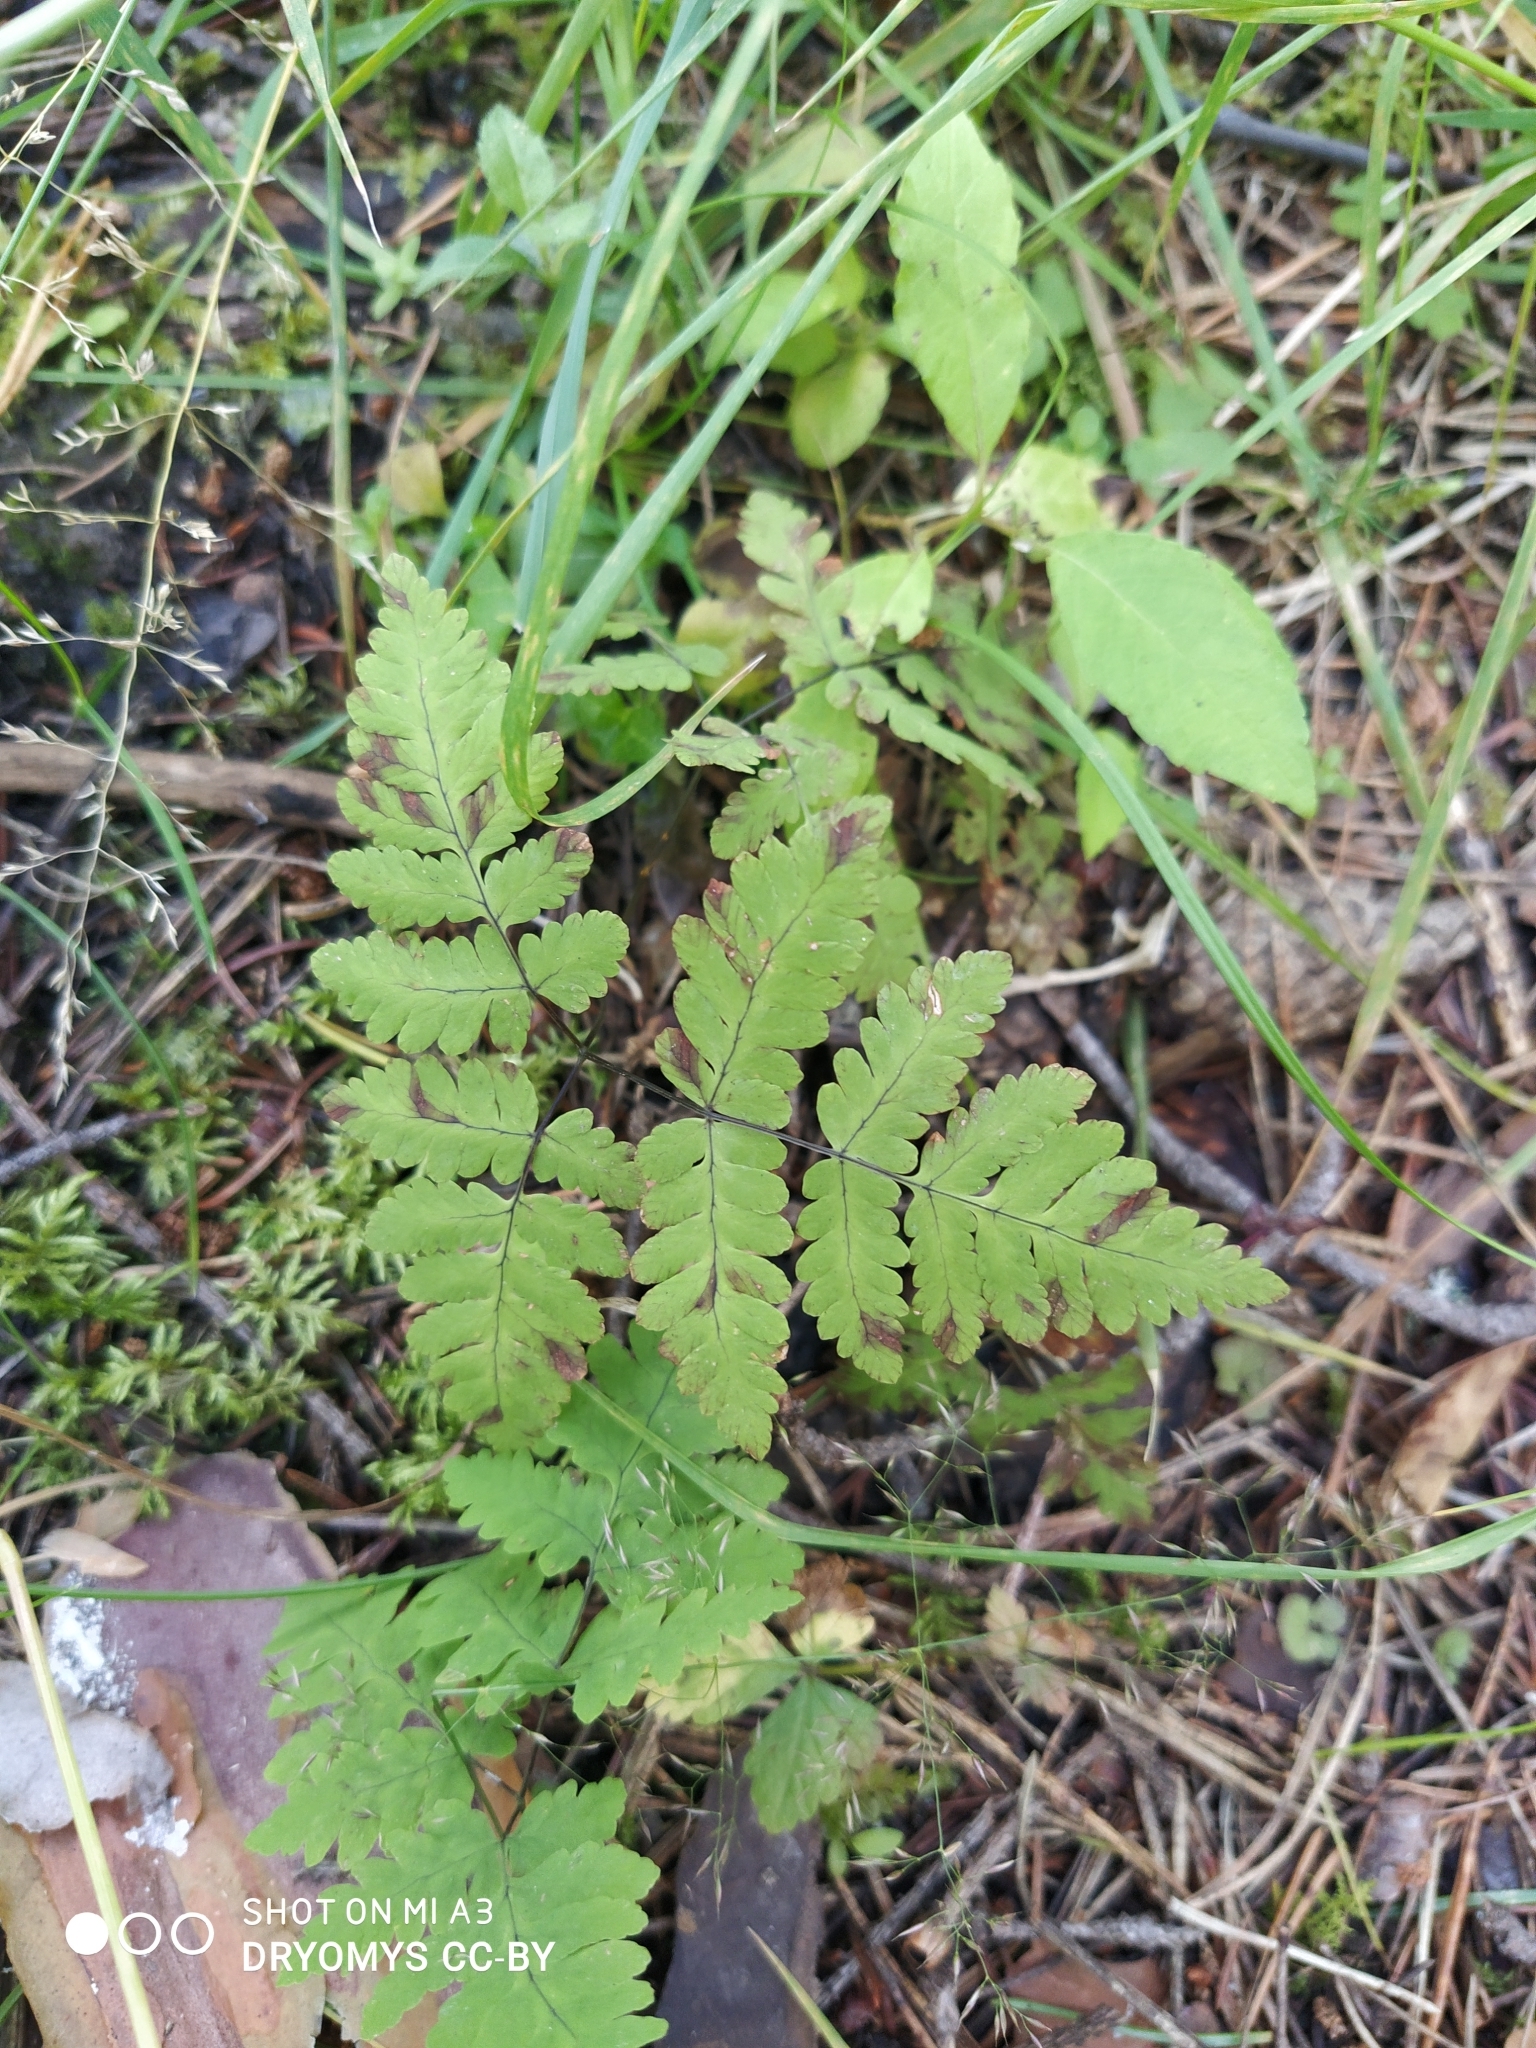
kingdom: Plantae
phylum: Tracheophyta
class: Polypodiopsida
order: Polypodiales
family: Cystopteridaceae
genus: Gymnocarpium
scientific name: Gymnocarpium dryopteris
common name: Oak fern
